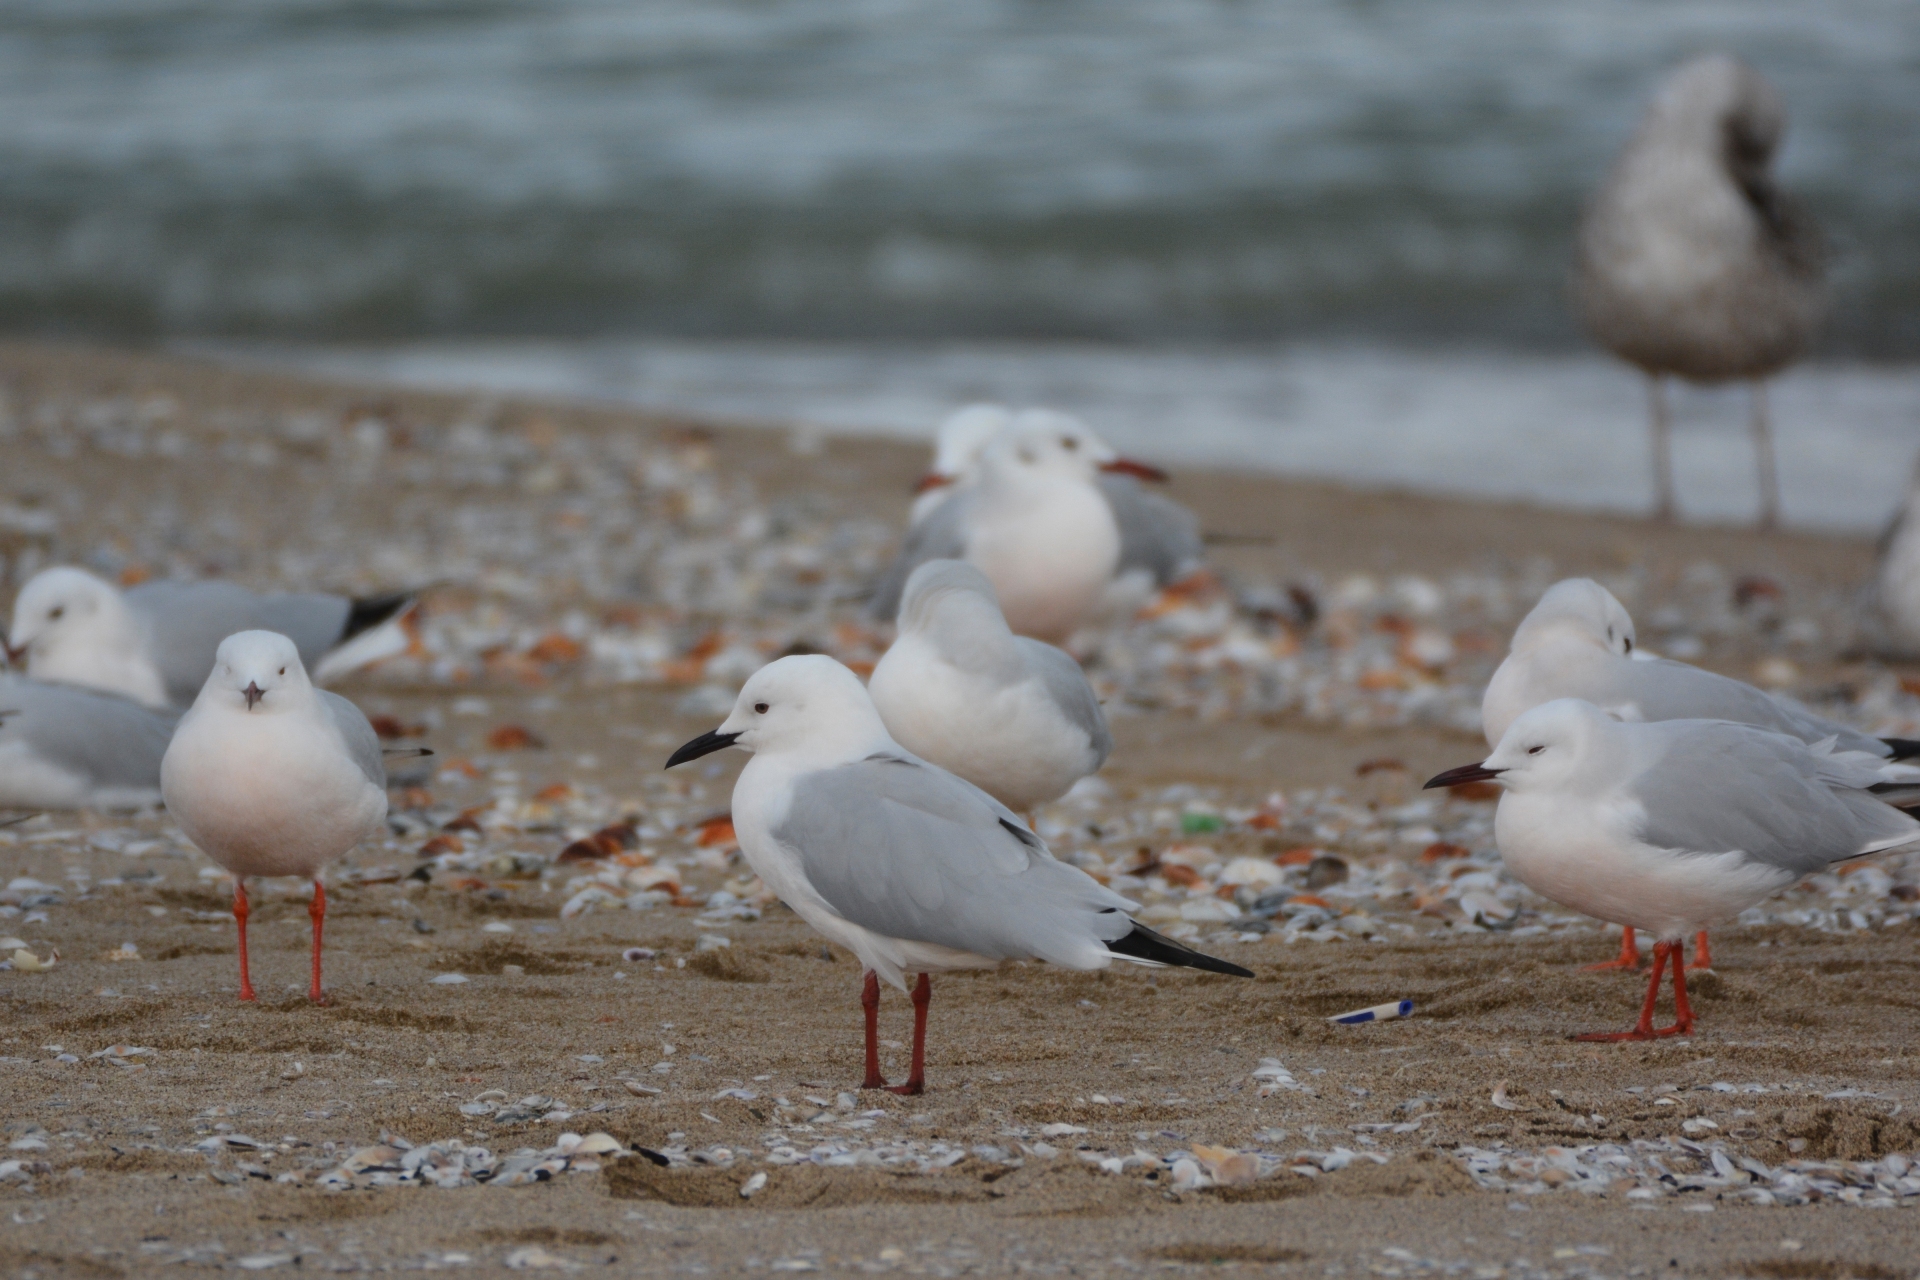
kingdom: Animalia
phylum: Chordata
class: Aves
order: Charadriiformes
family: Laridae
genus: Chroicocephalus
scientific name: Chroicocephalus genei
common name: Slender-billed gull
